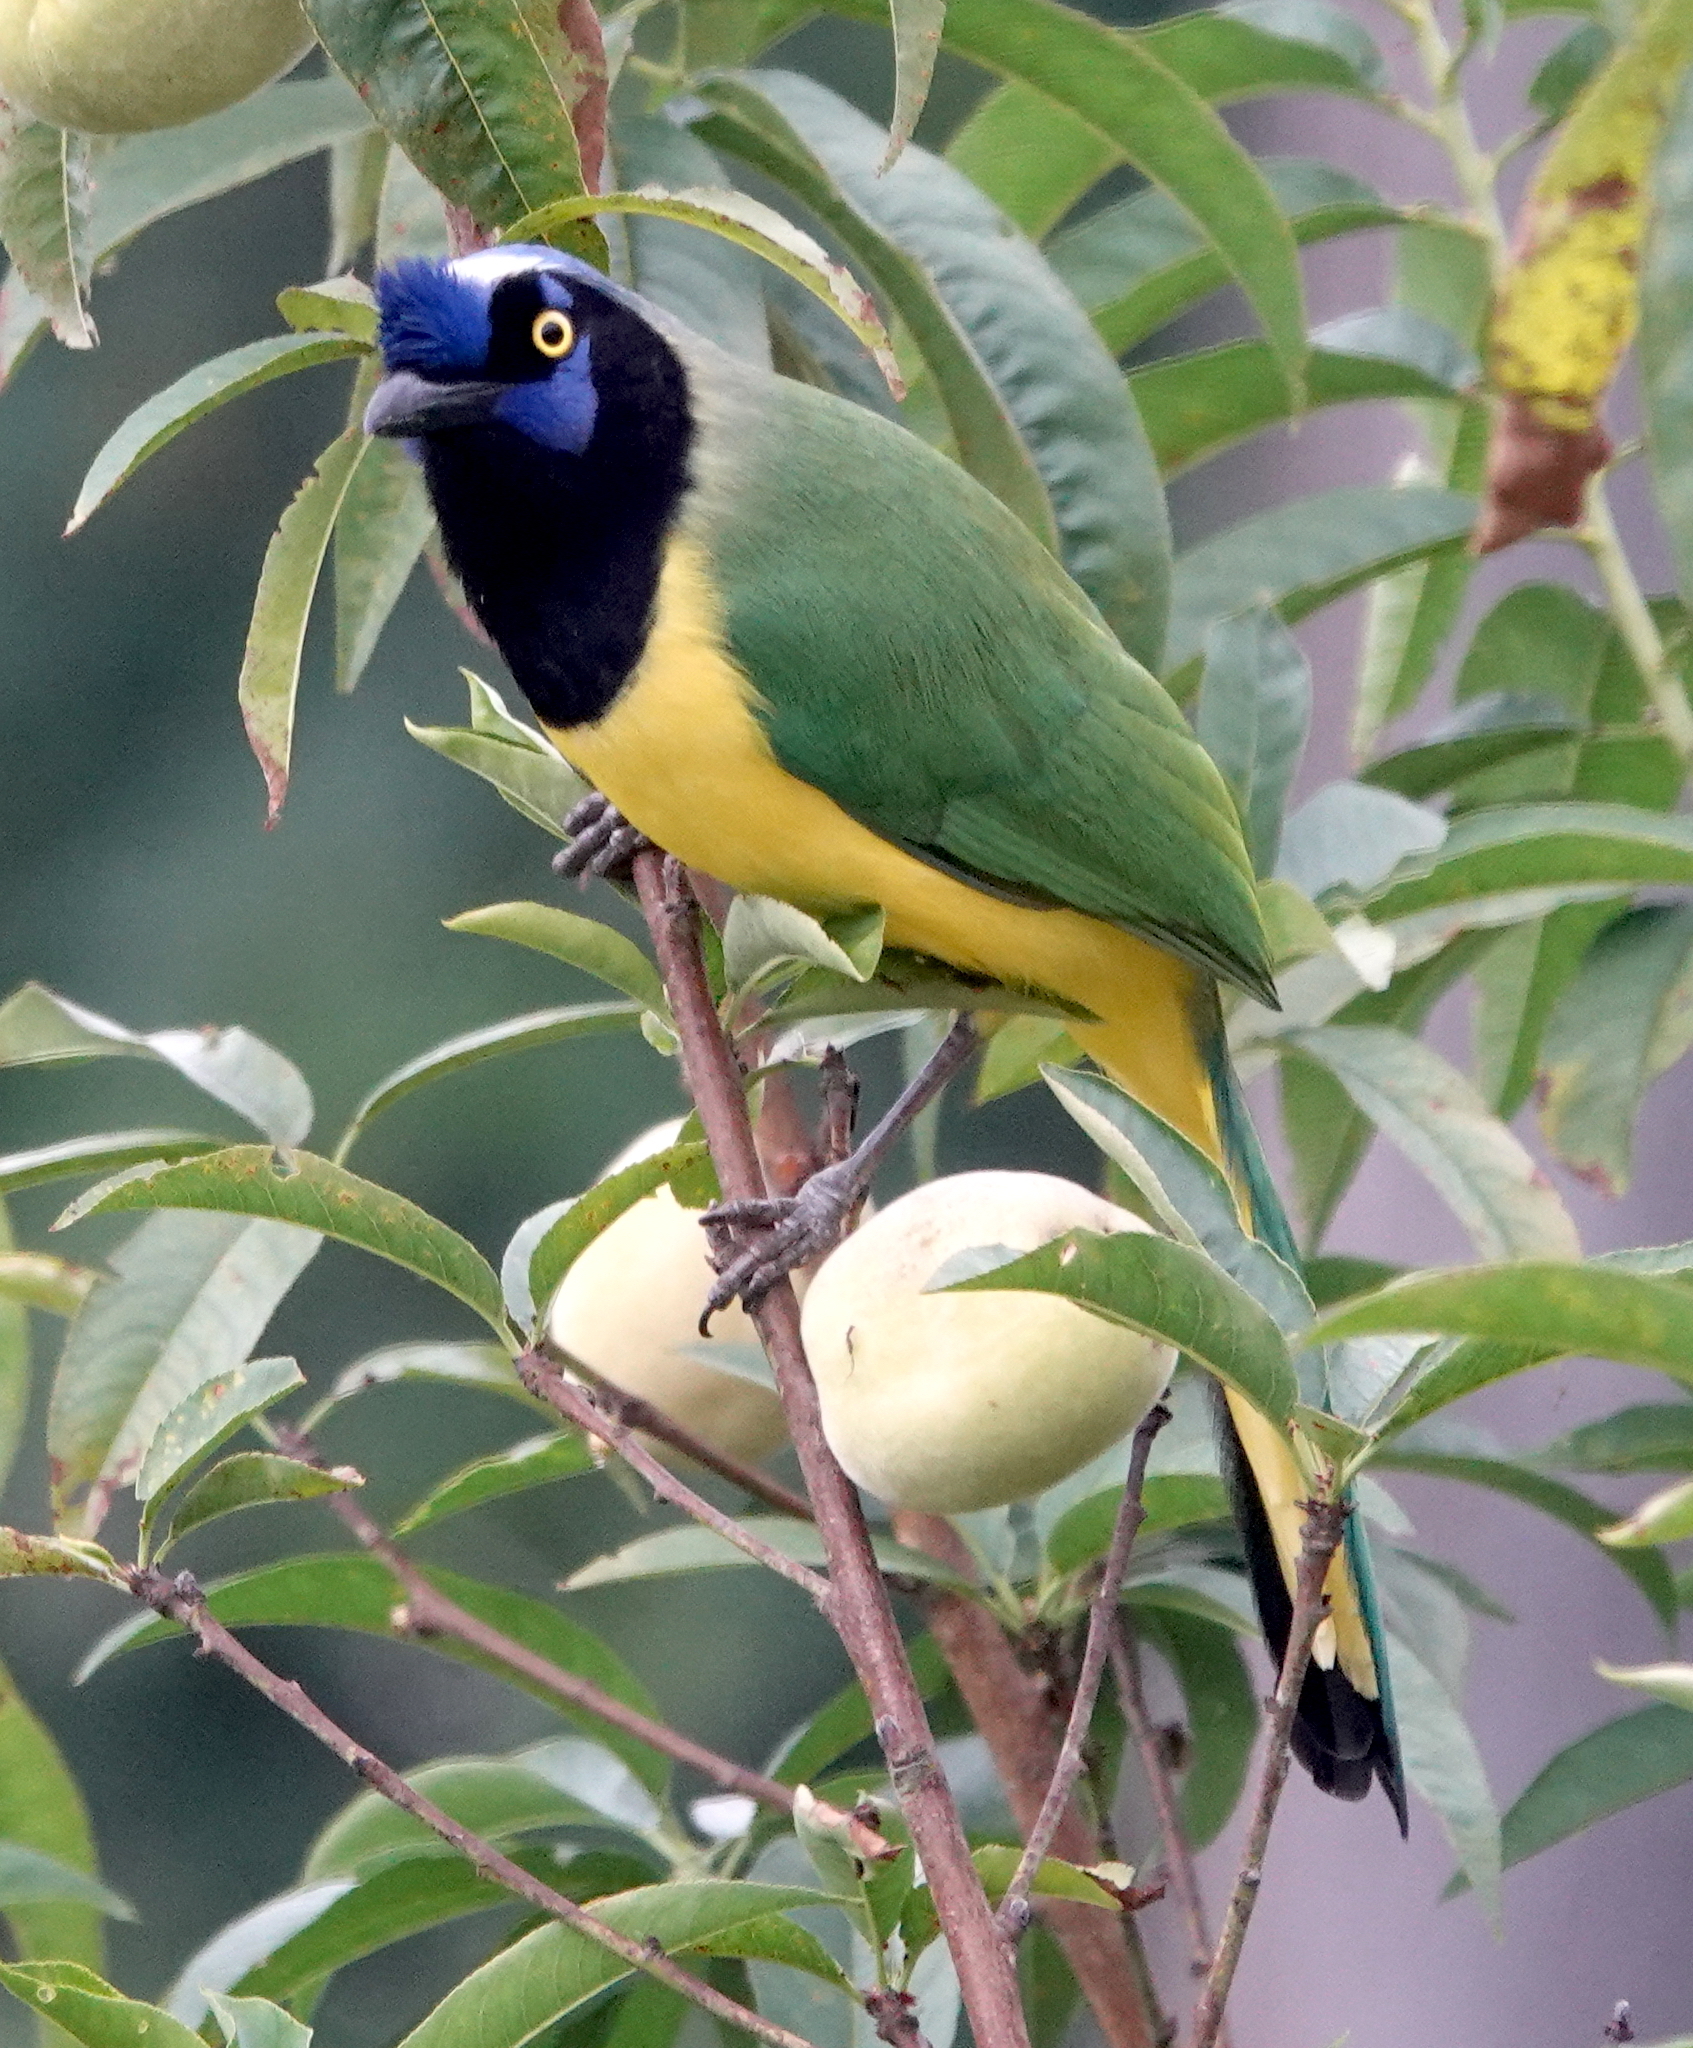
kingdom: Animalia
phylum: Chordata
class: Aves
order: Passeriformes
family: Corvidae
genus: Cyanocorax
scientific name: Cyanocorax yncas
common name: Green jay
